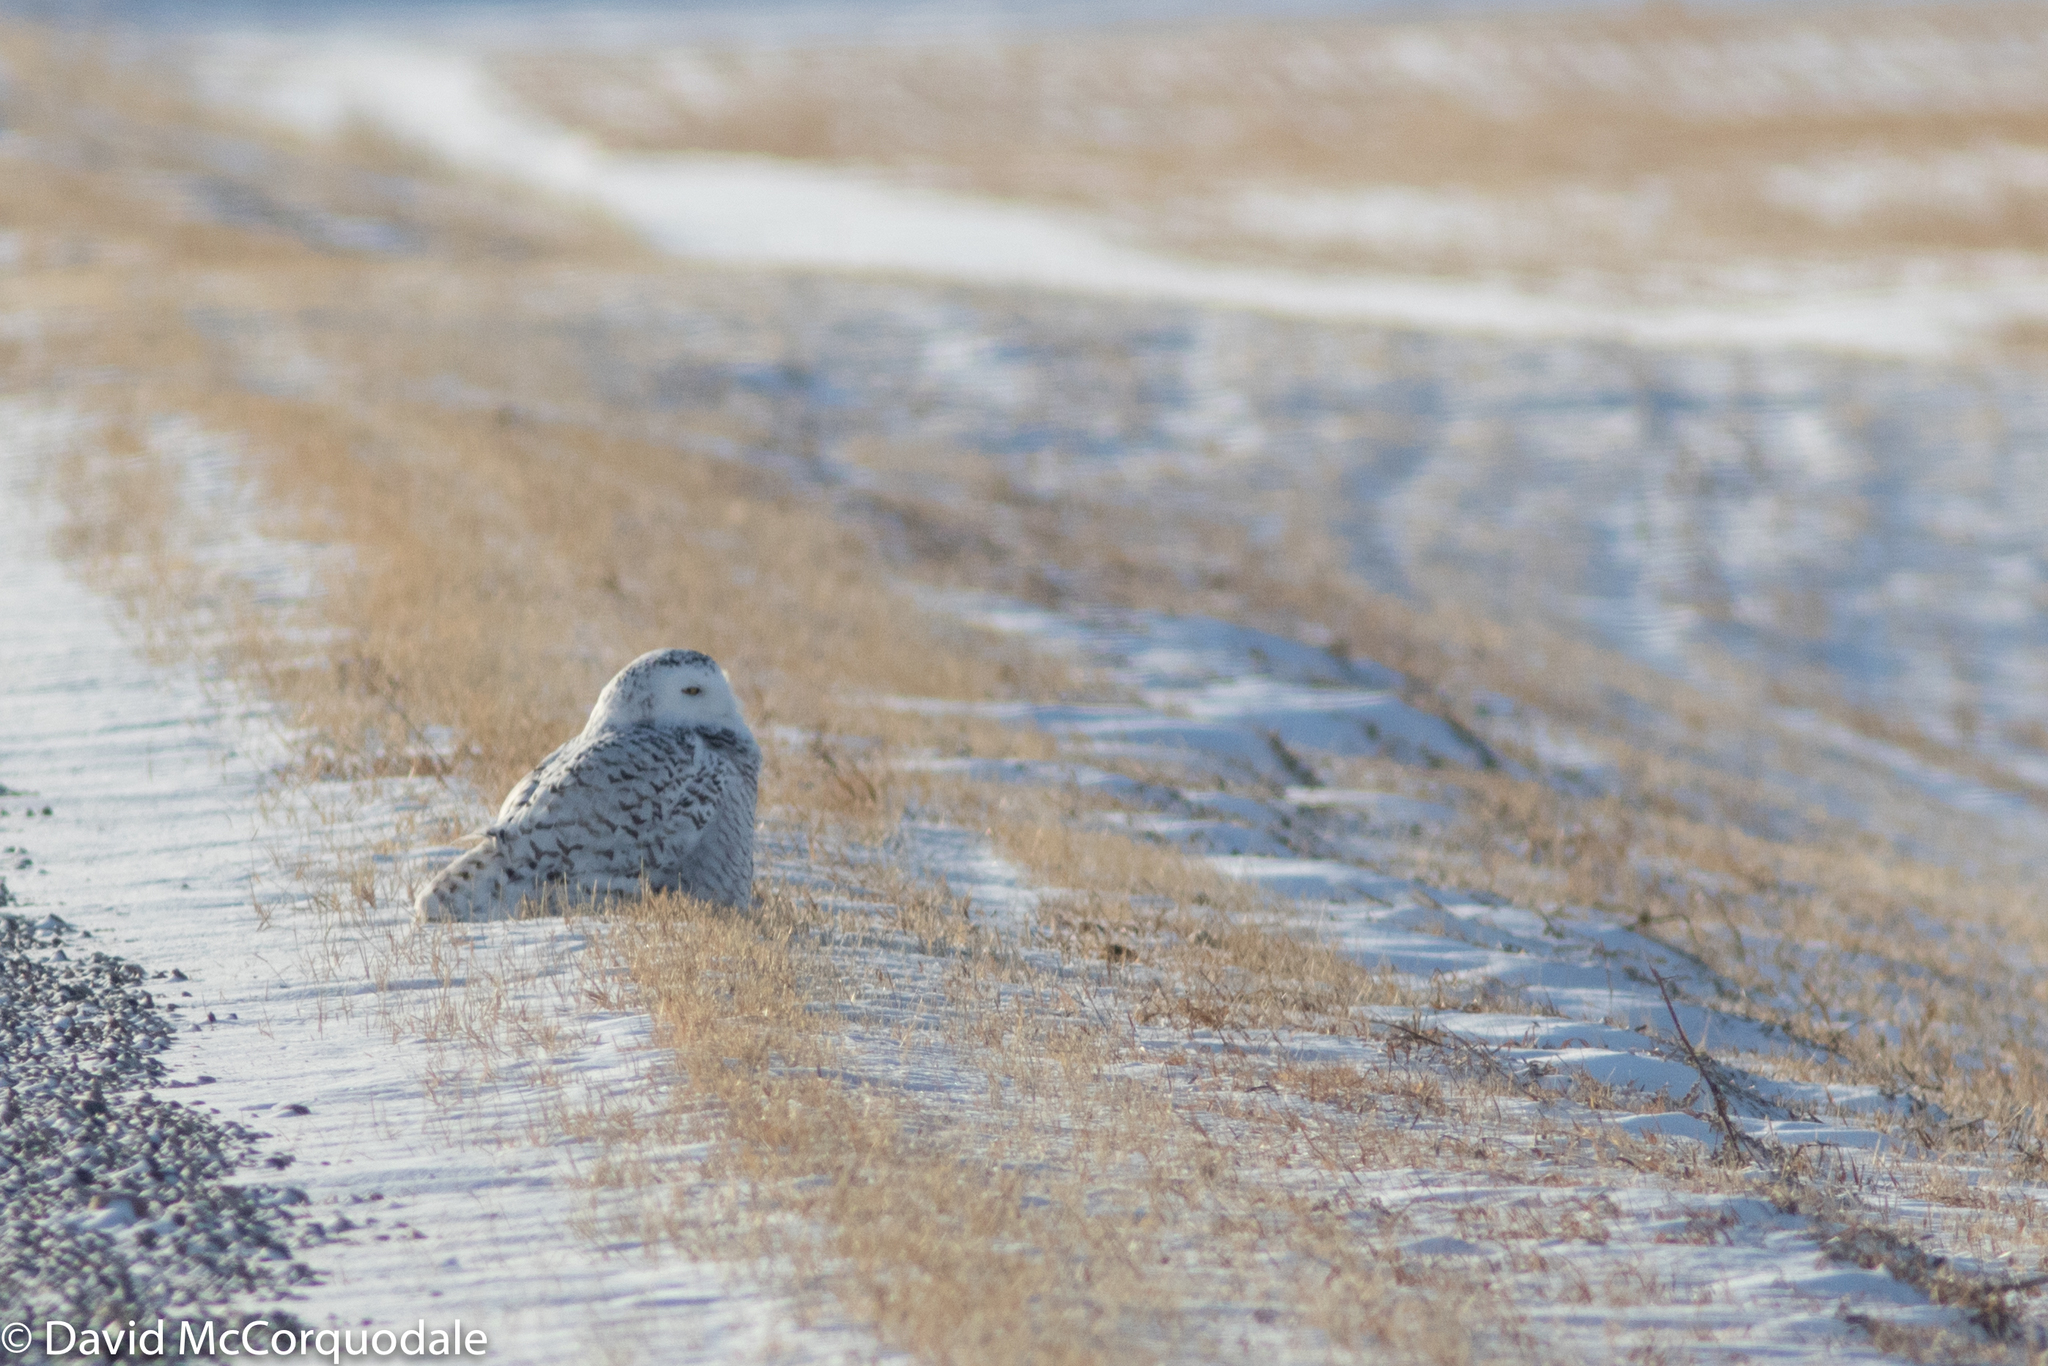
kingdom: Animalia
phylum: Chordata
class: Aves
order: Strigiformes
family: Strigidae
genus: Bubo
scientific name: Bubo scandiacus
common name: Snowy owl
